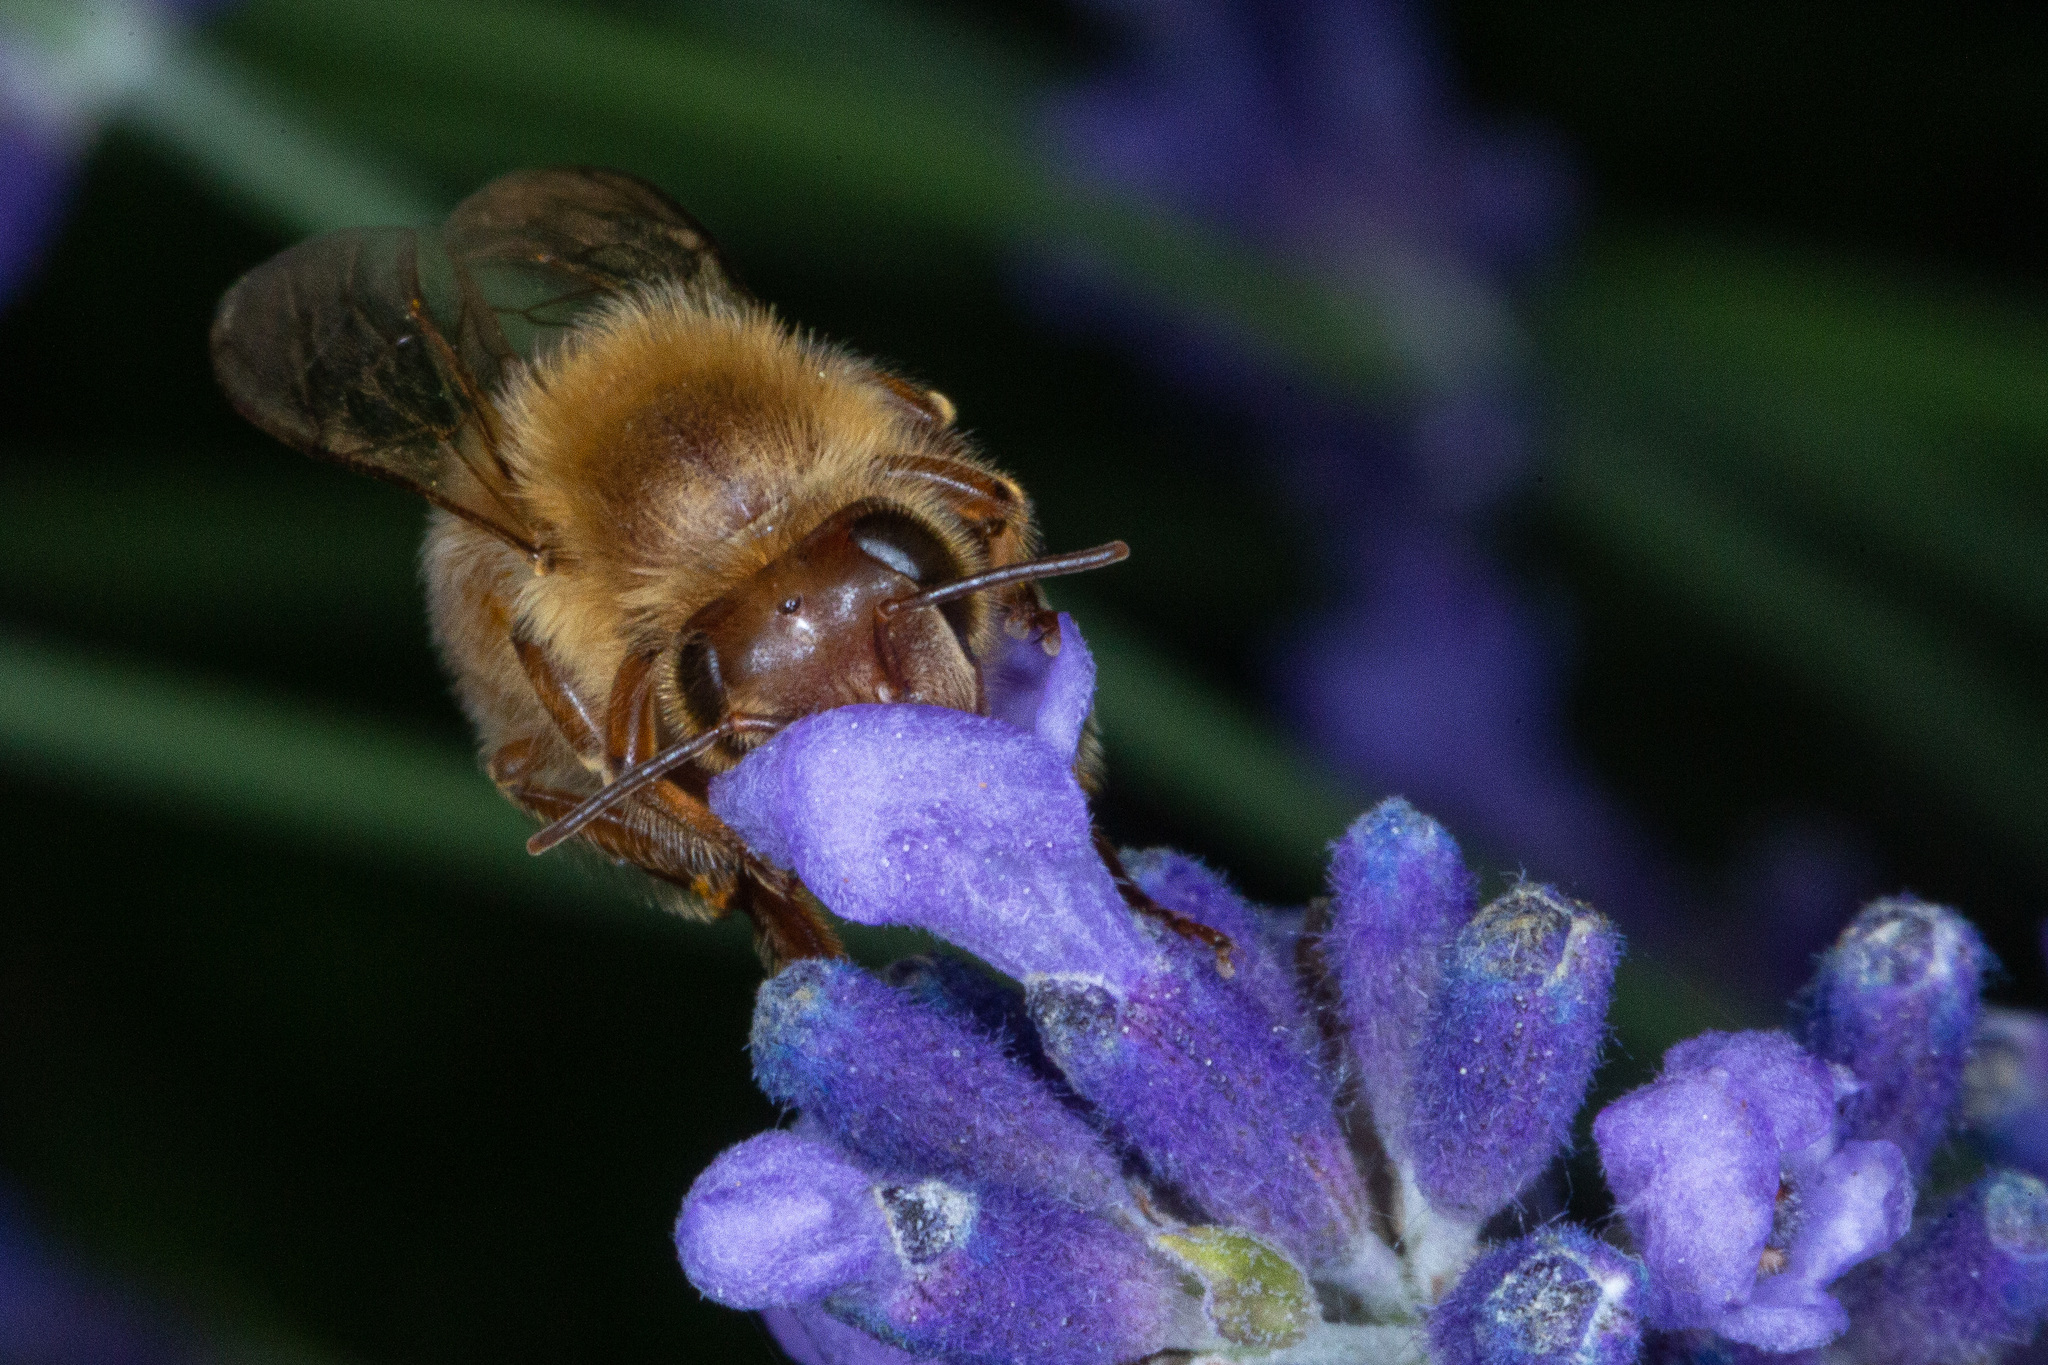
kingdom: Animalia
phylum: Arthropoda
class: Insecta
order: Hymenoptera
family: Apidae
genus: Apis
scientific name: Apis mellifera
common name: Honey bee
